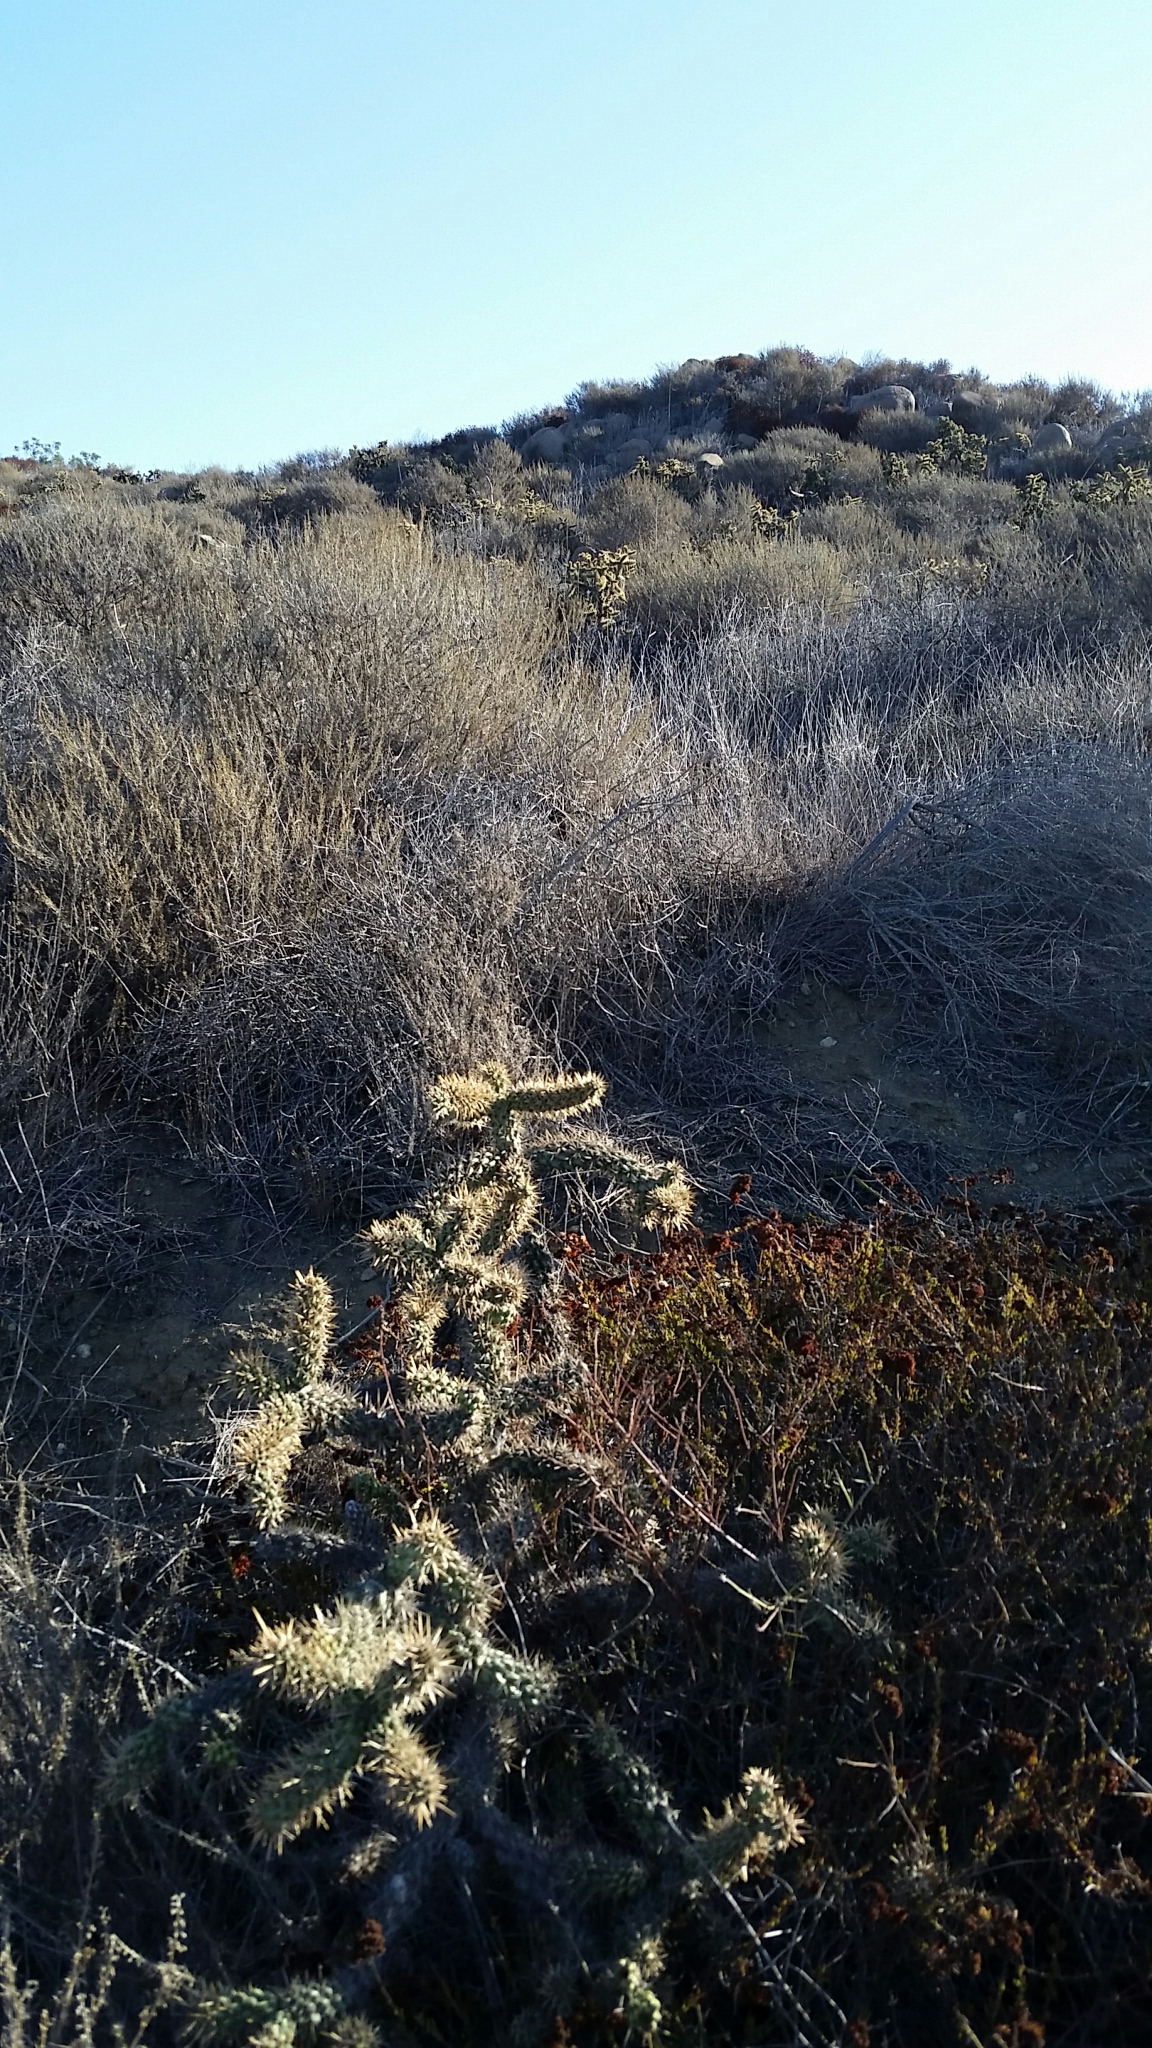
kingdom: Plantae
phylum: Tracheophyta
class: Magnoliopsida
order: Caryophyllales
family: Cactaceae
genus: Cylindropuntia
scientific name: Cylindropuntia prolifera
